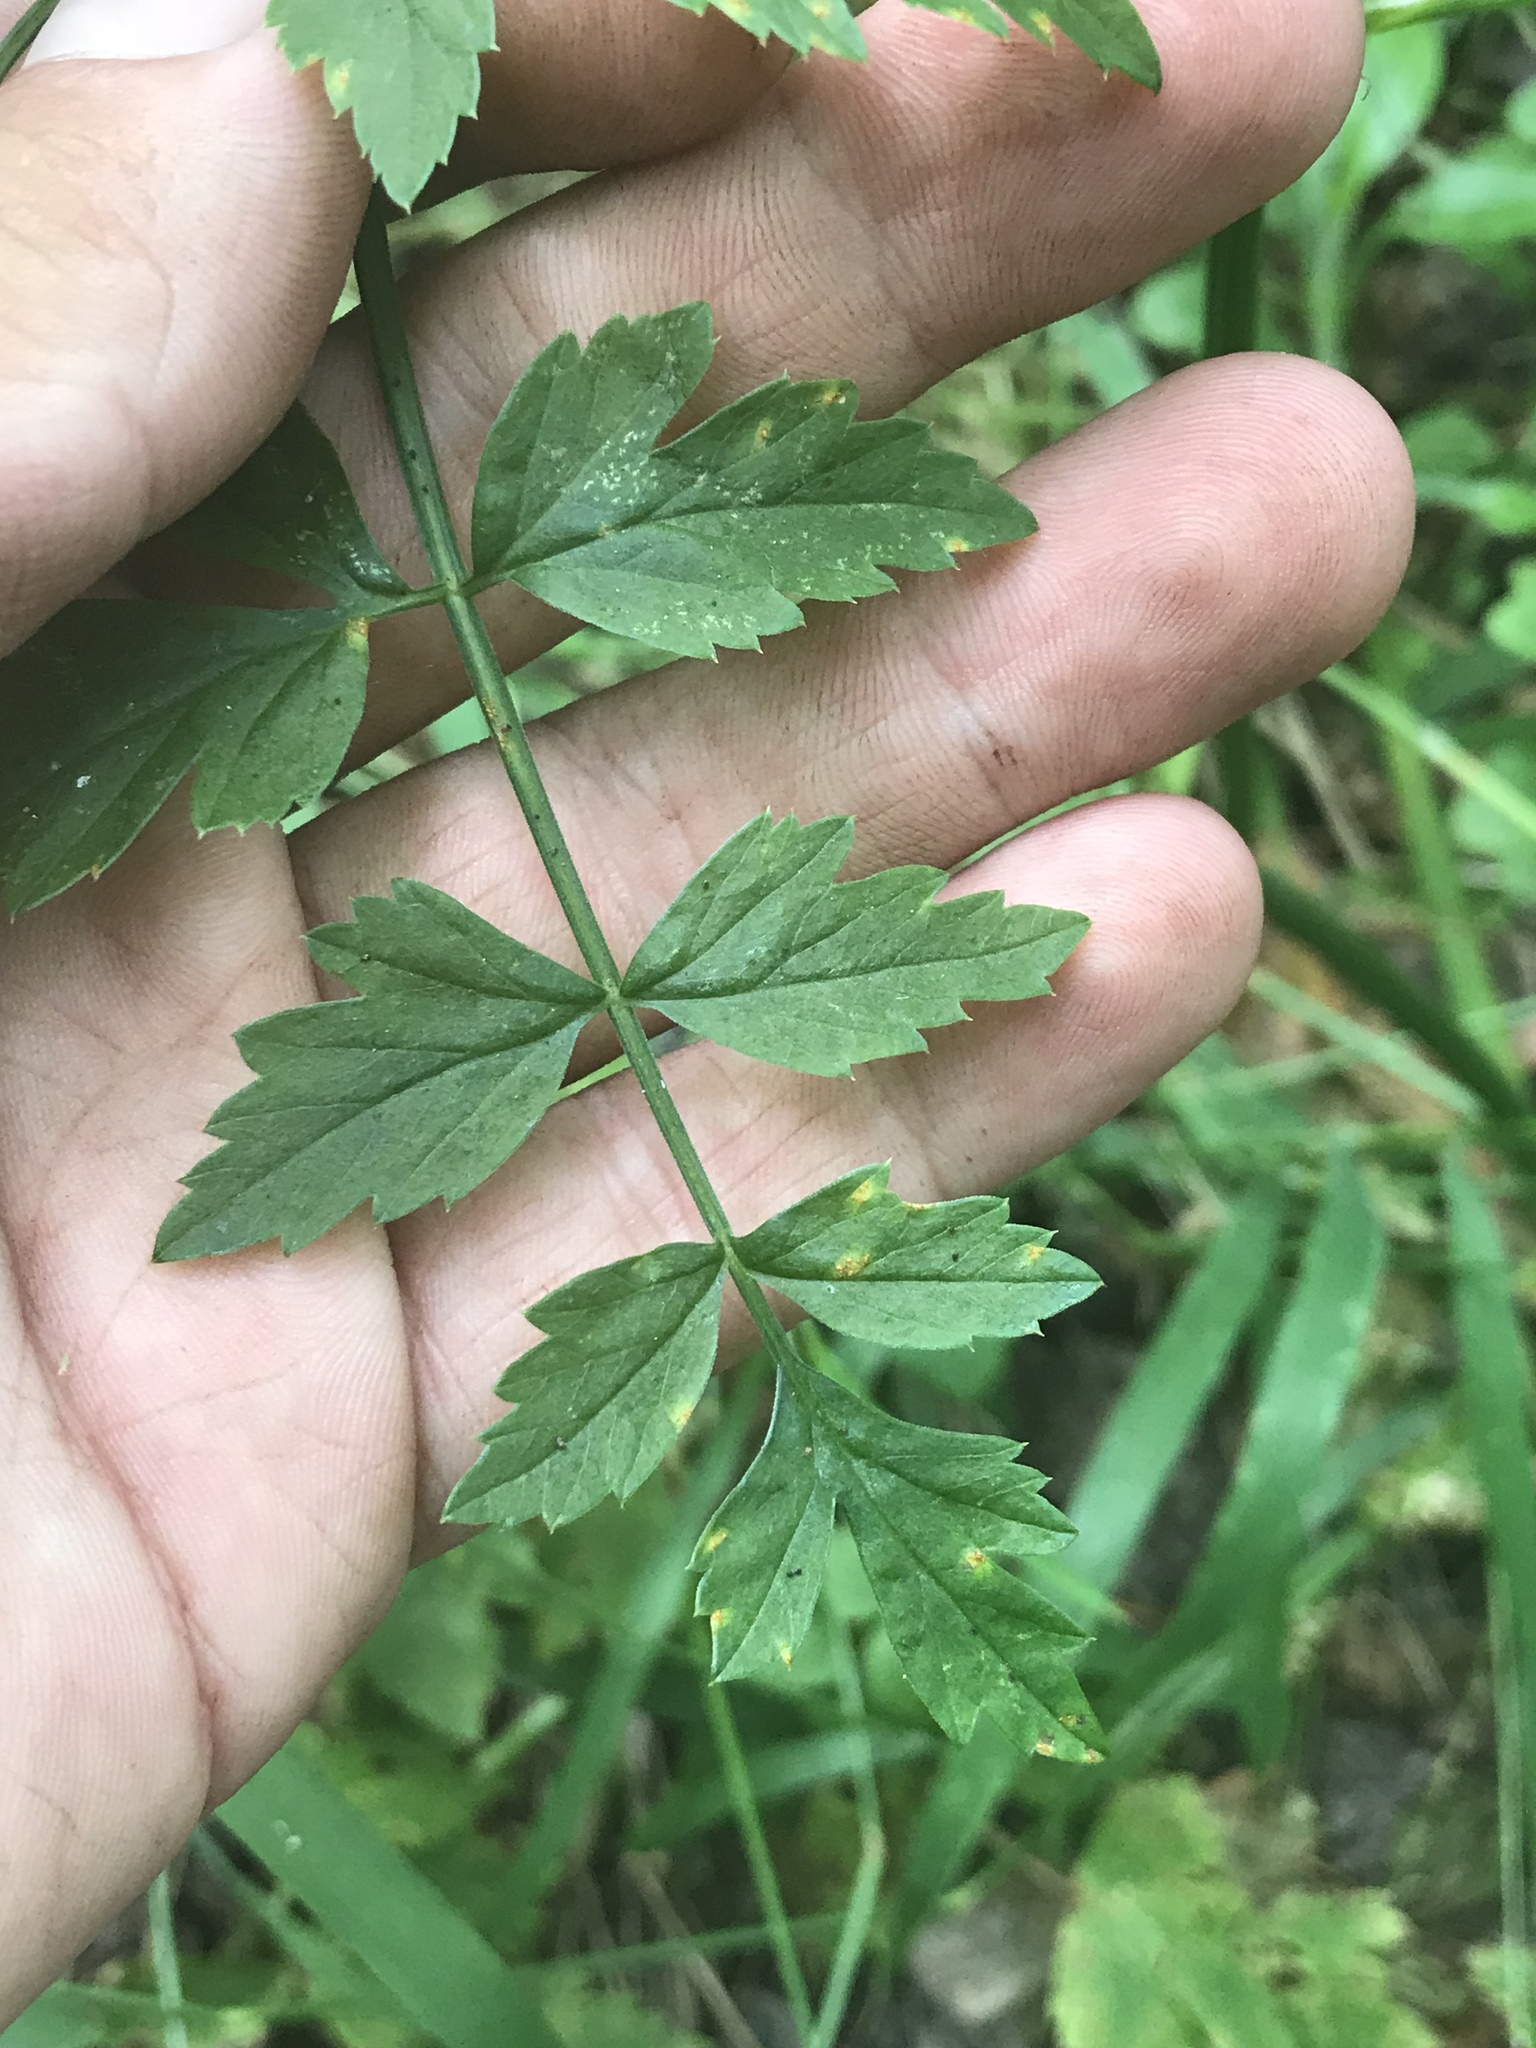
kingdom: Plantae
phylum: Tracheophyta
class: Magnoliopsida
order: Apiales
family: Apiaceae
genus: Oenanthe
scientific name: Oenanthe sarmentosa
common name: American water-parsley
